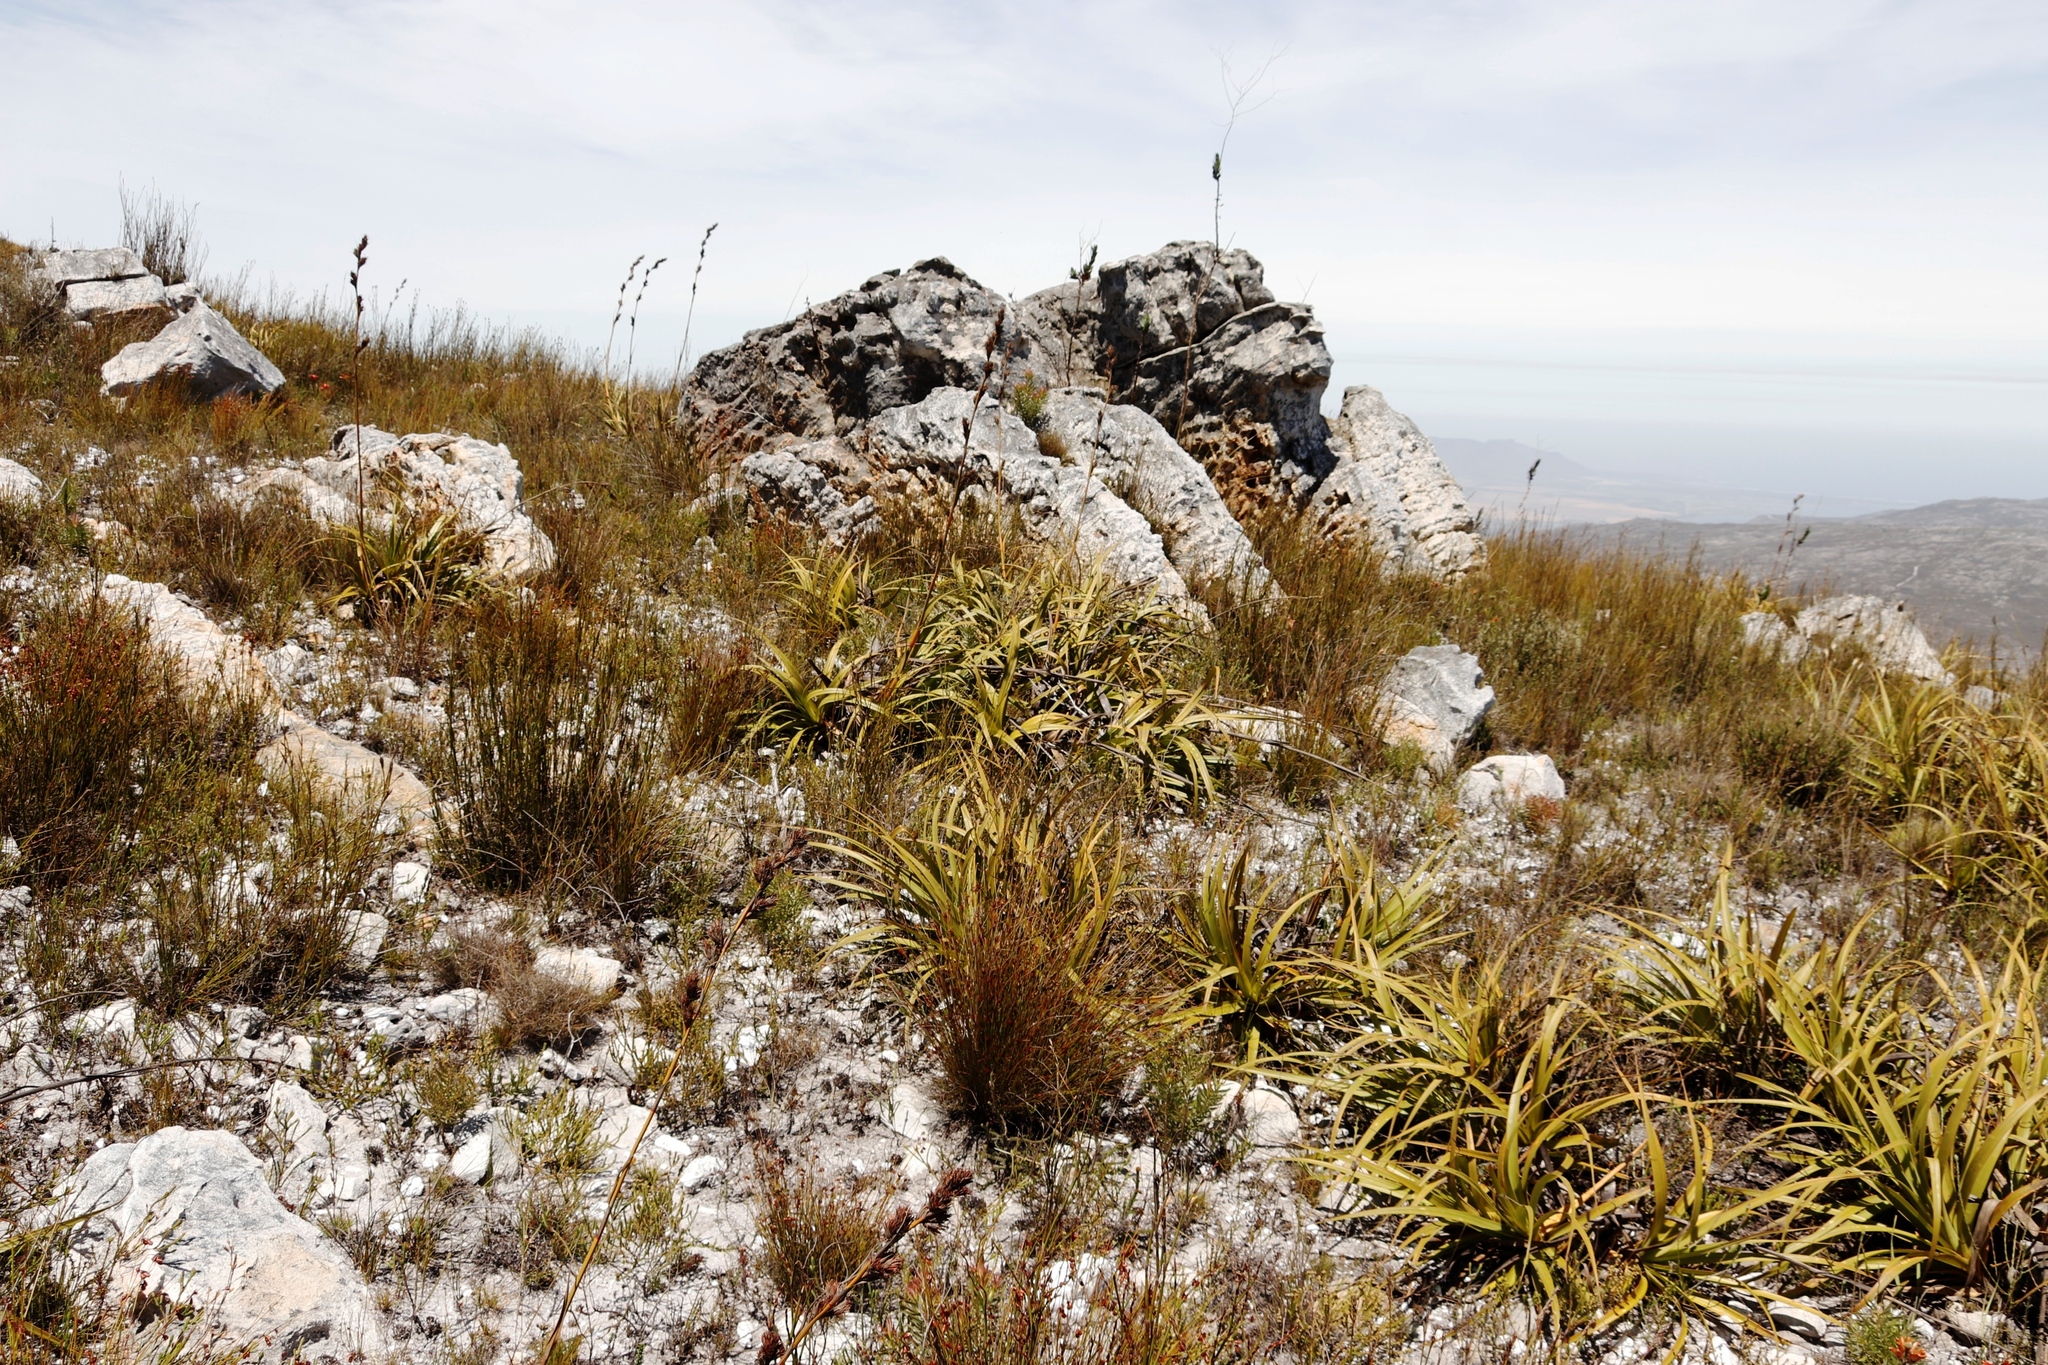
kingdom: Plantae
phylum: Tracheophyta
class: Liliopsida
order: Poales
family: Cyperaceae
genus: Tetraria
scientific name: Tetraria thermalis
